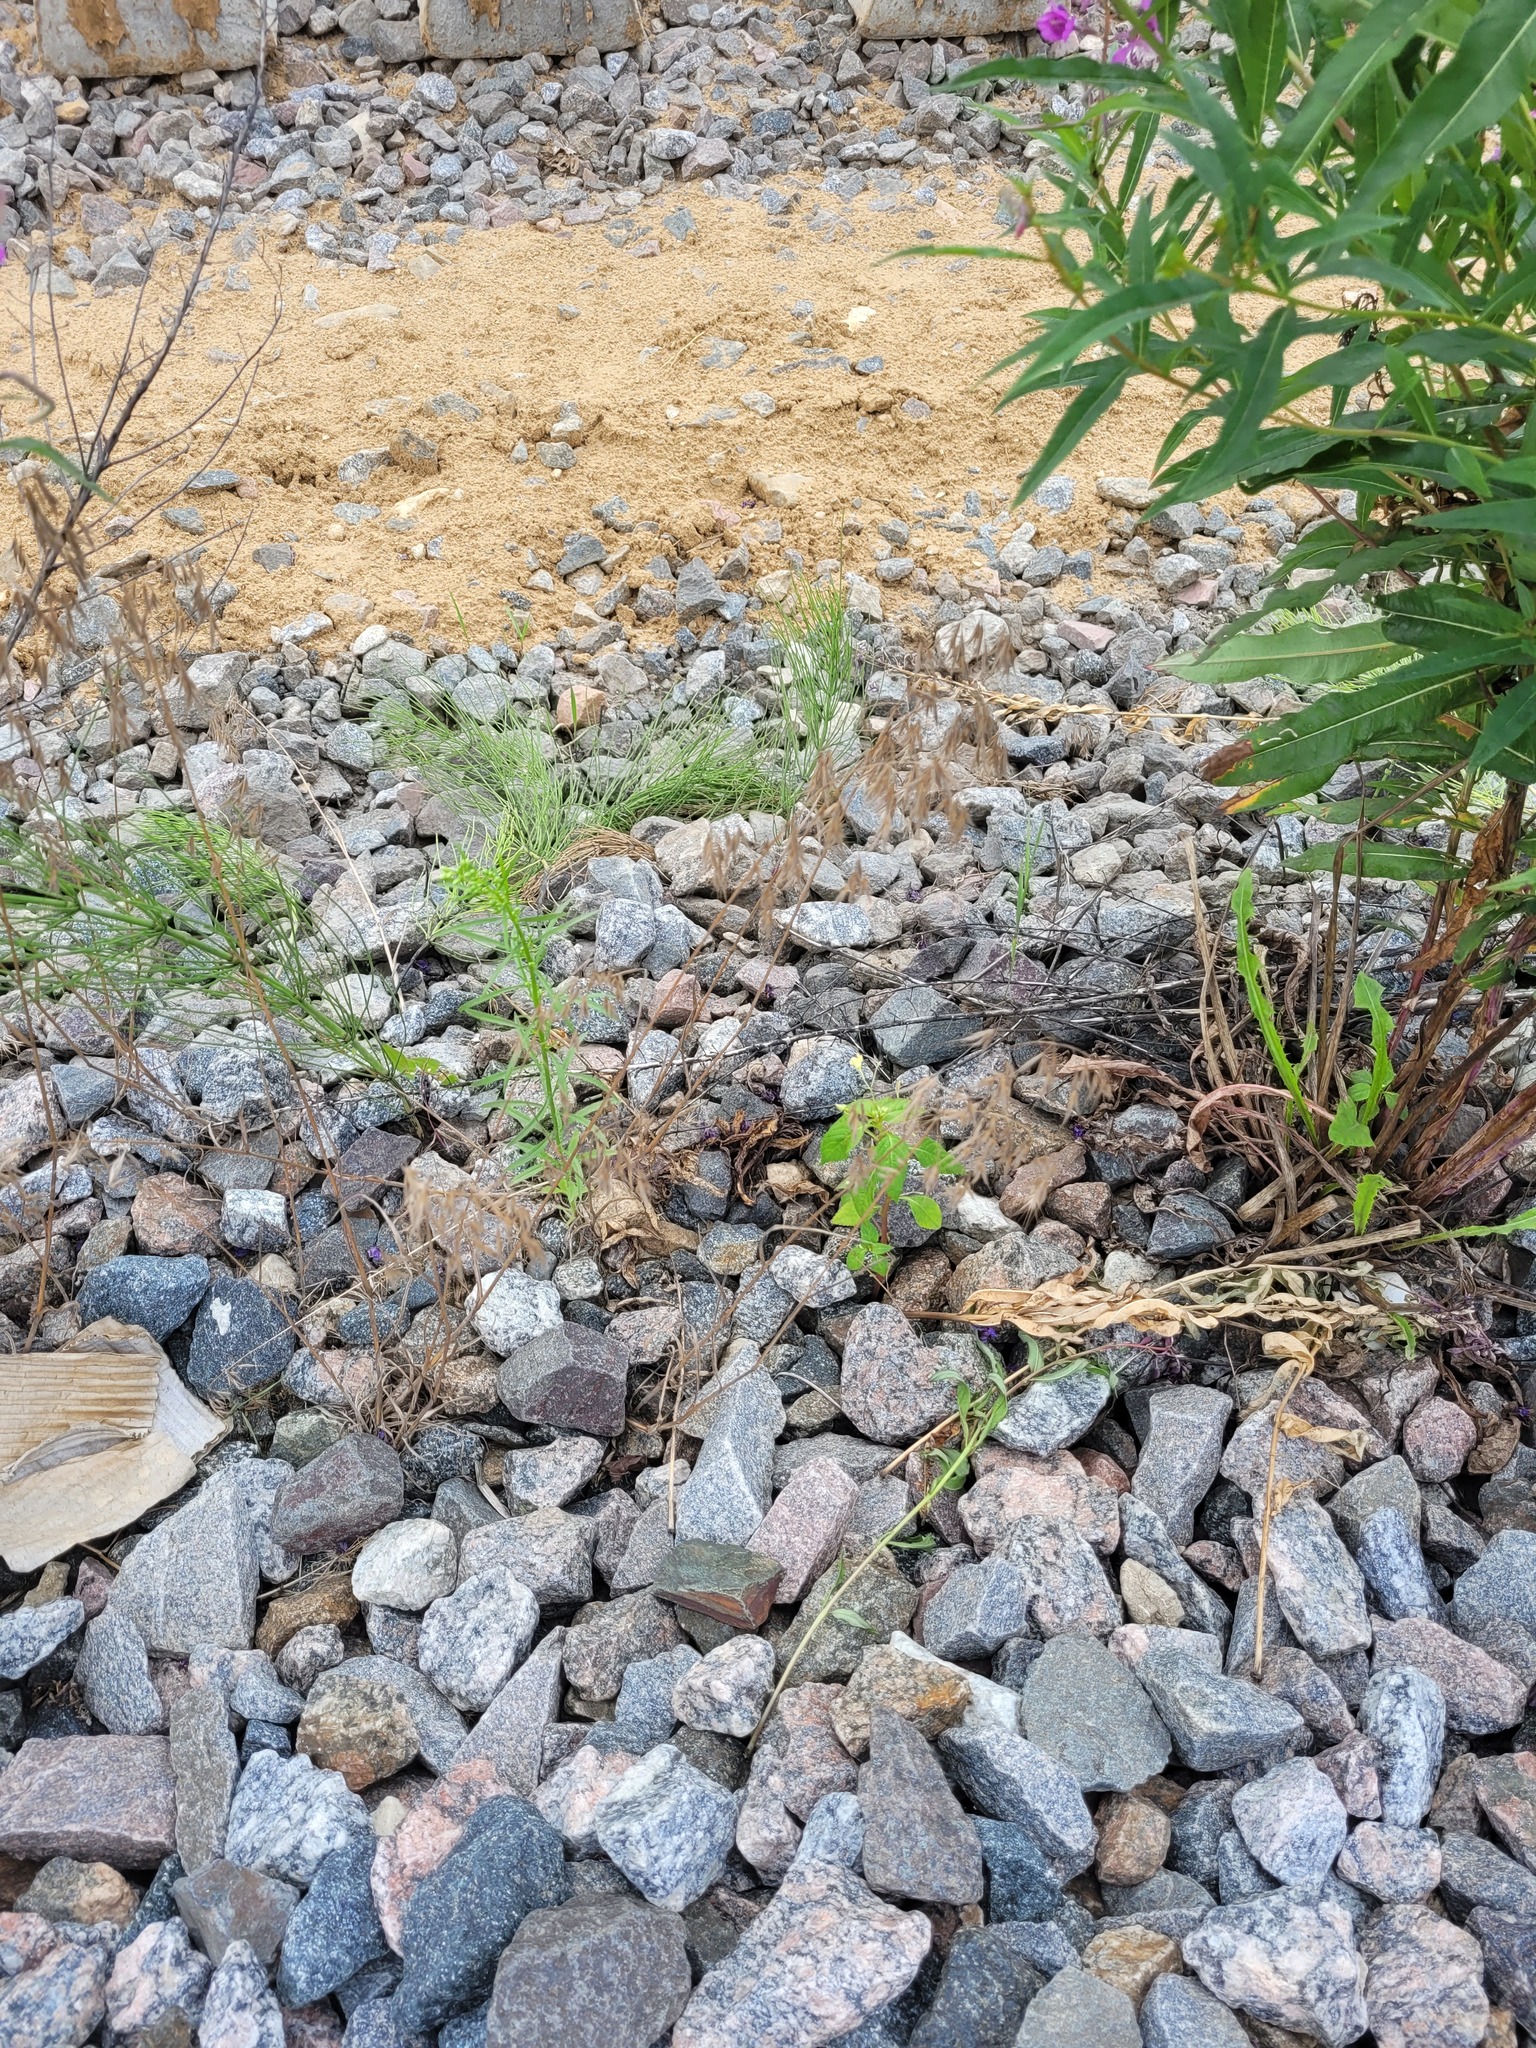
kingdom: Plantae
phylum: Tracheophyta
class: Liliopsida
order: Poales
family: Poaceae
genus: Bromus
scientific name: Bromus tectorum
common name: Cheatgrass
